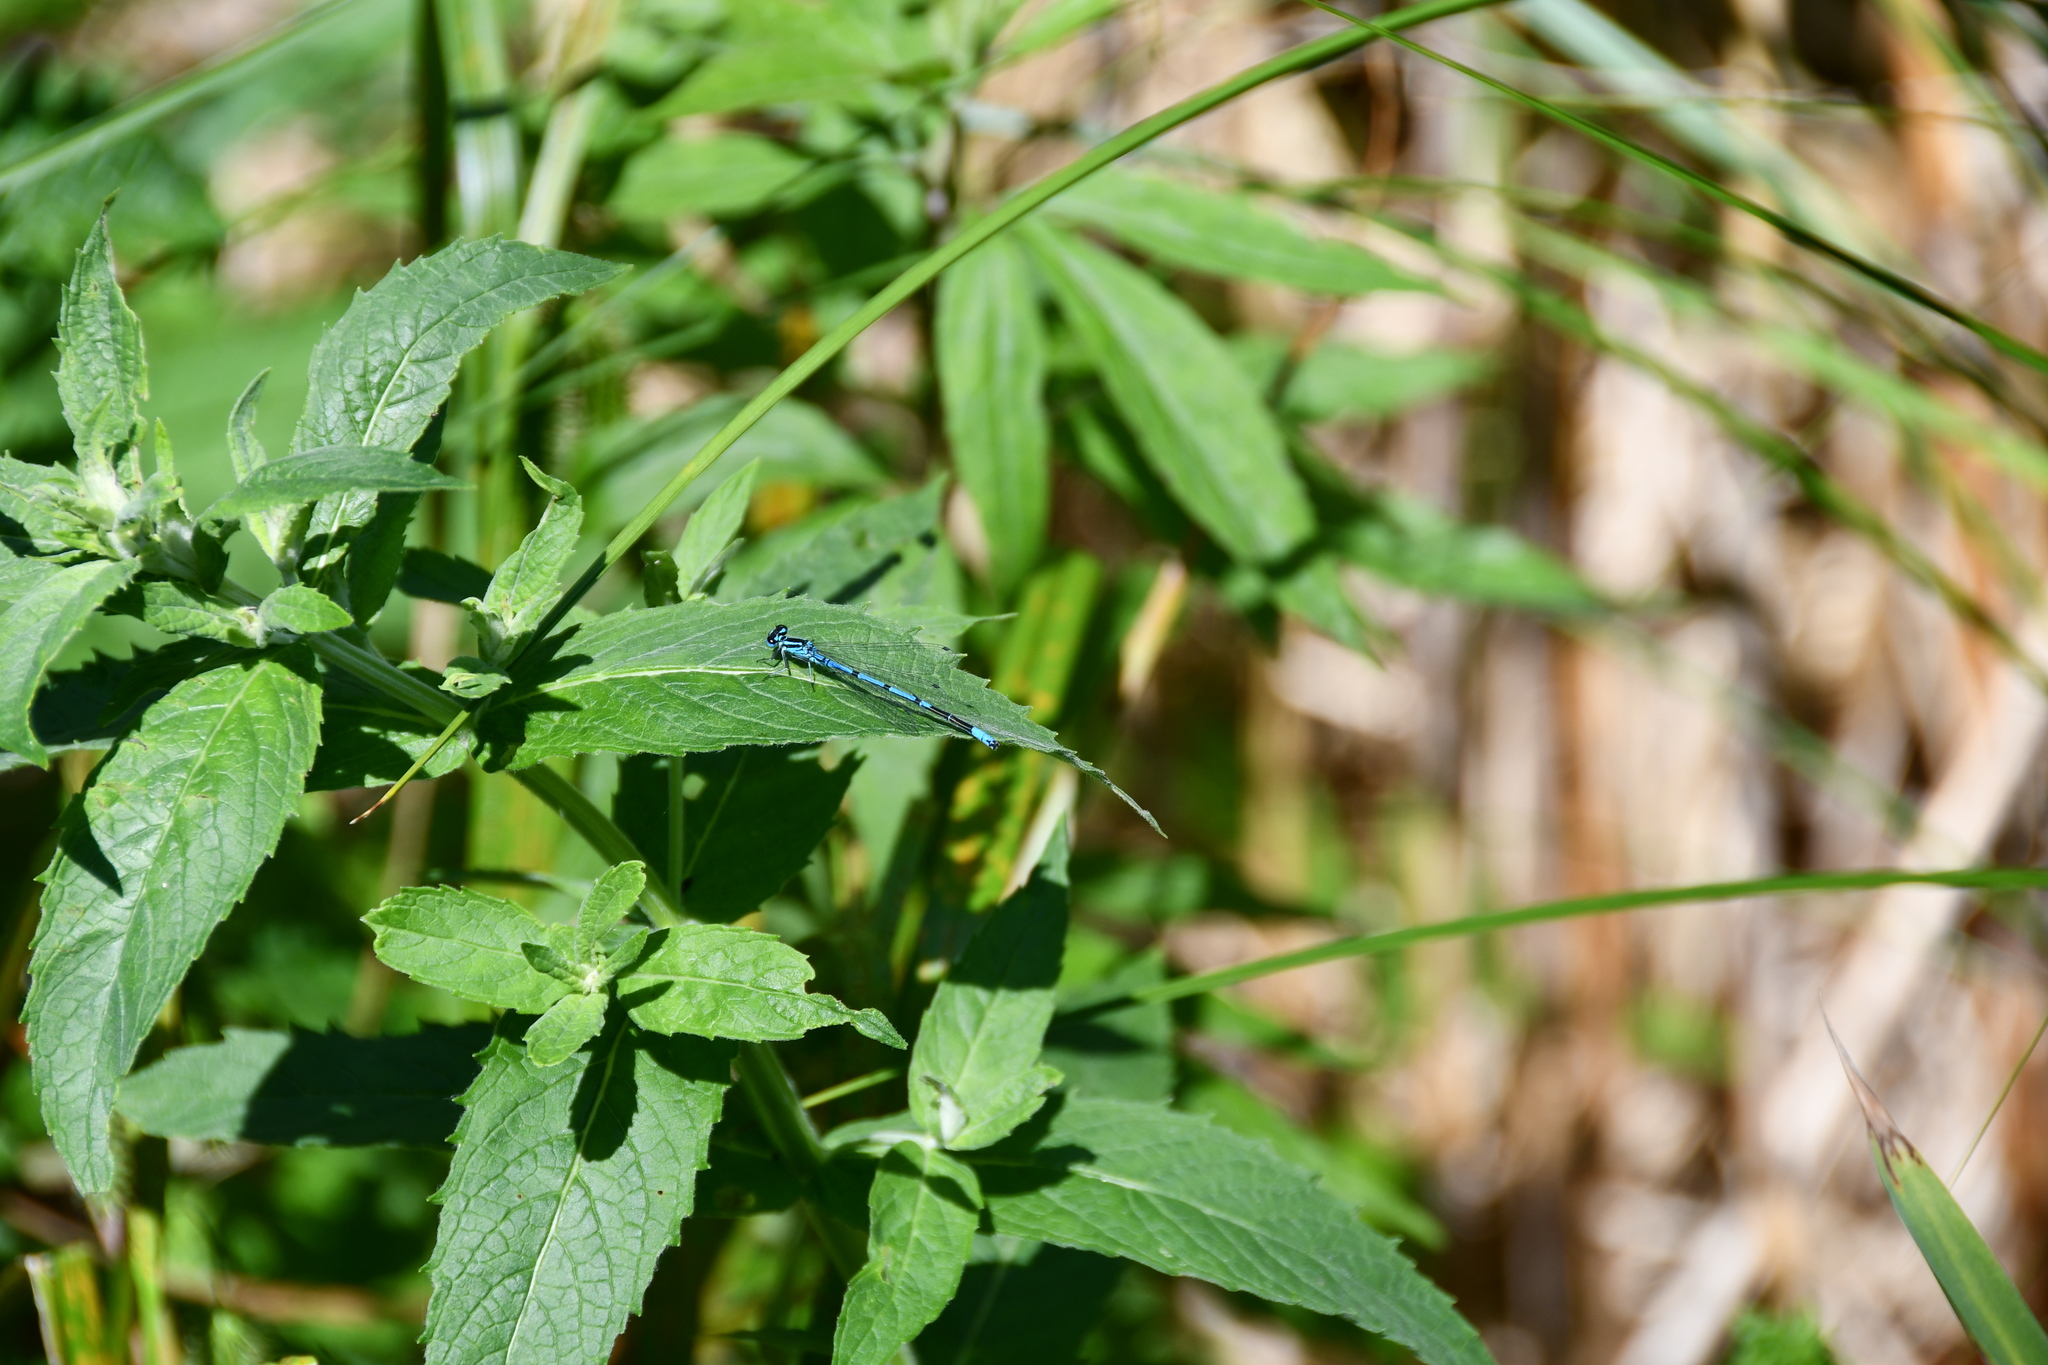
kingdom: Animalia
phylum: Arthropoda
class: Insecta
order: Odonata
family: Coenagrionidae
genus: Coenagrion
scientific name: Coenagrion puella
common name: Azure damselfly
